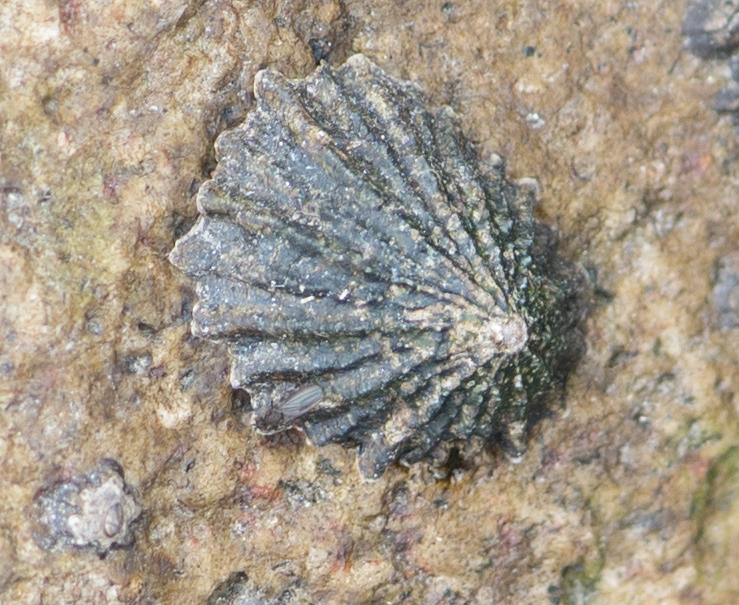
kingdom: Animalia
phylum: Mollusca
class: Gastropoda
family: Lottiidae
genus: Lottia
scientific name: Lottia scabra
